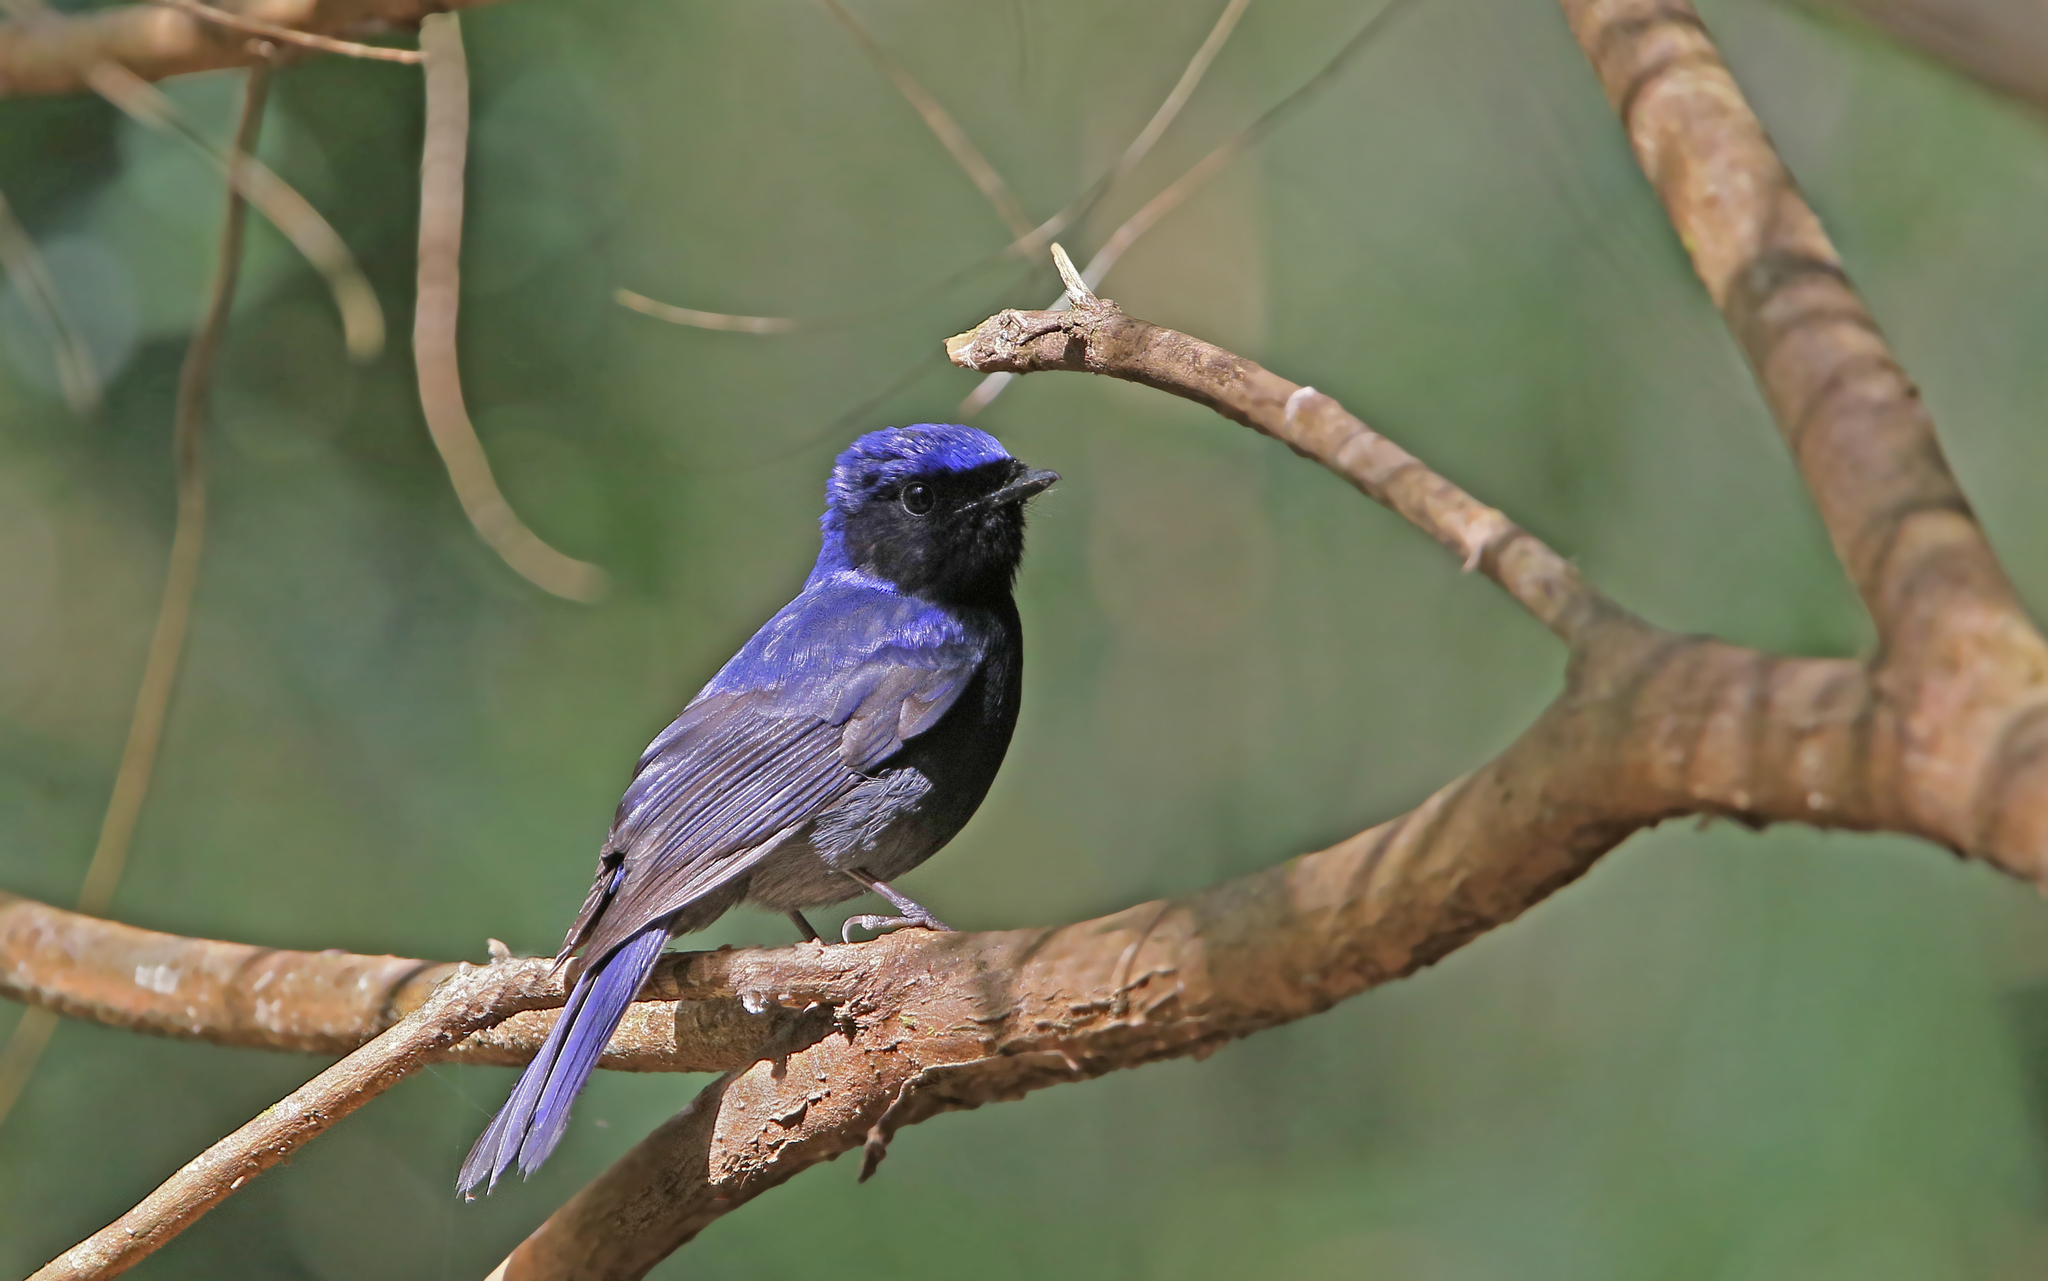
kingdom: Animalia
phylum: Chordata
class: Aves
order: Passeriformes
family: Muscicapidae
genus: Niltava
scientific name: Niltava grandis
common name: Large niltava
